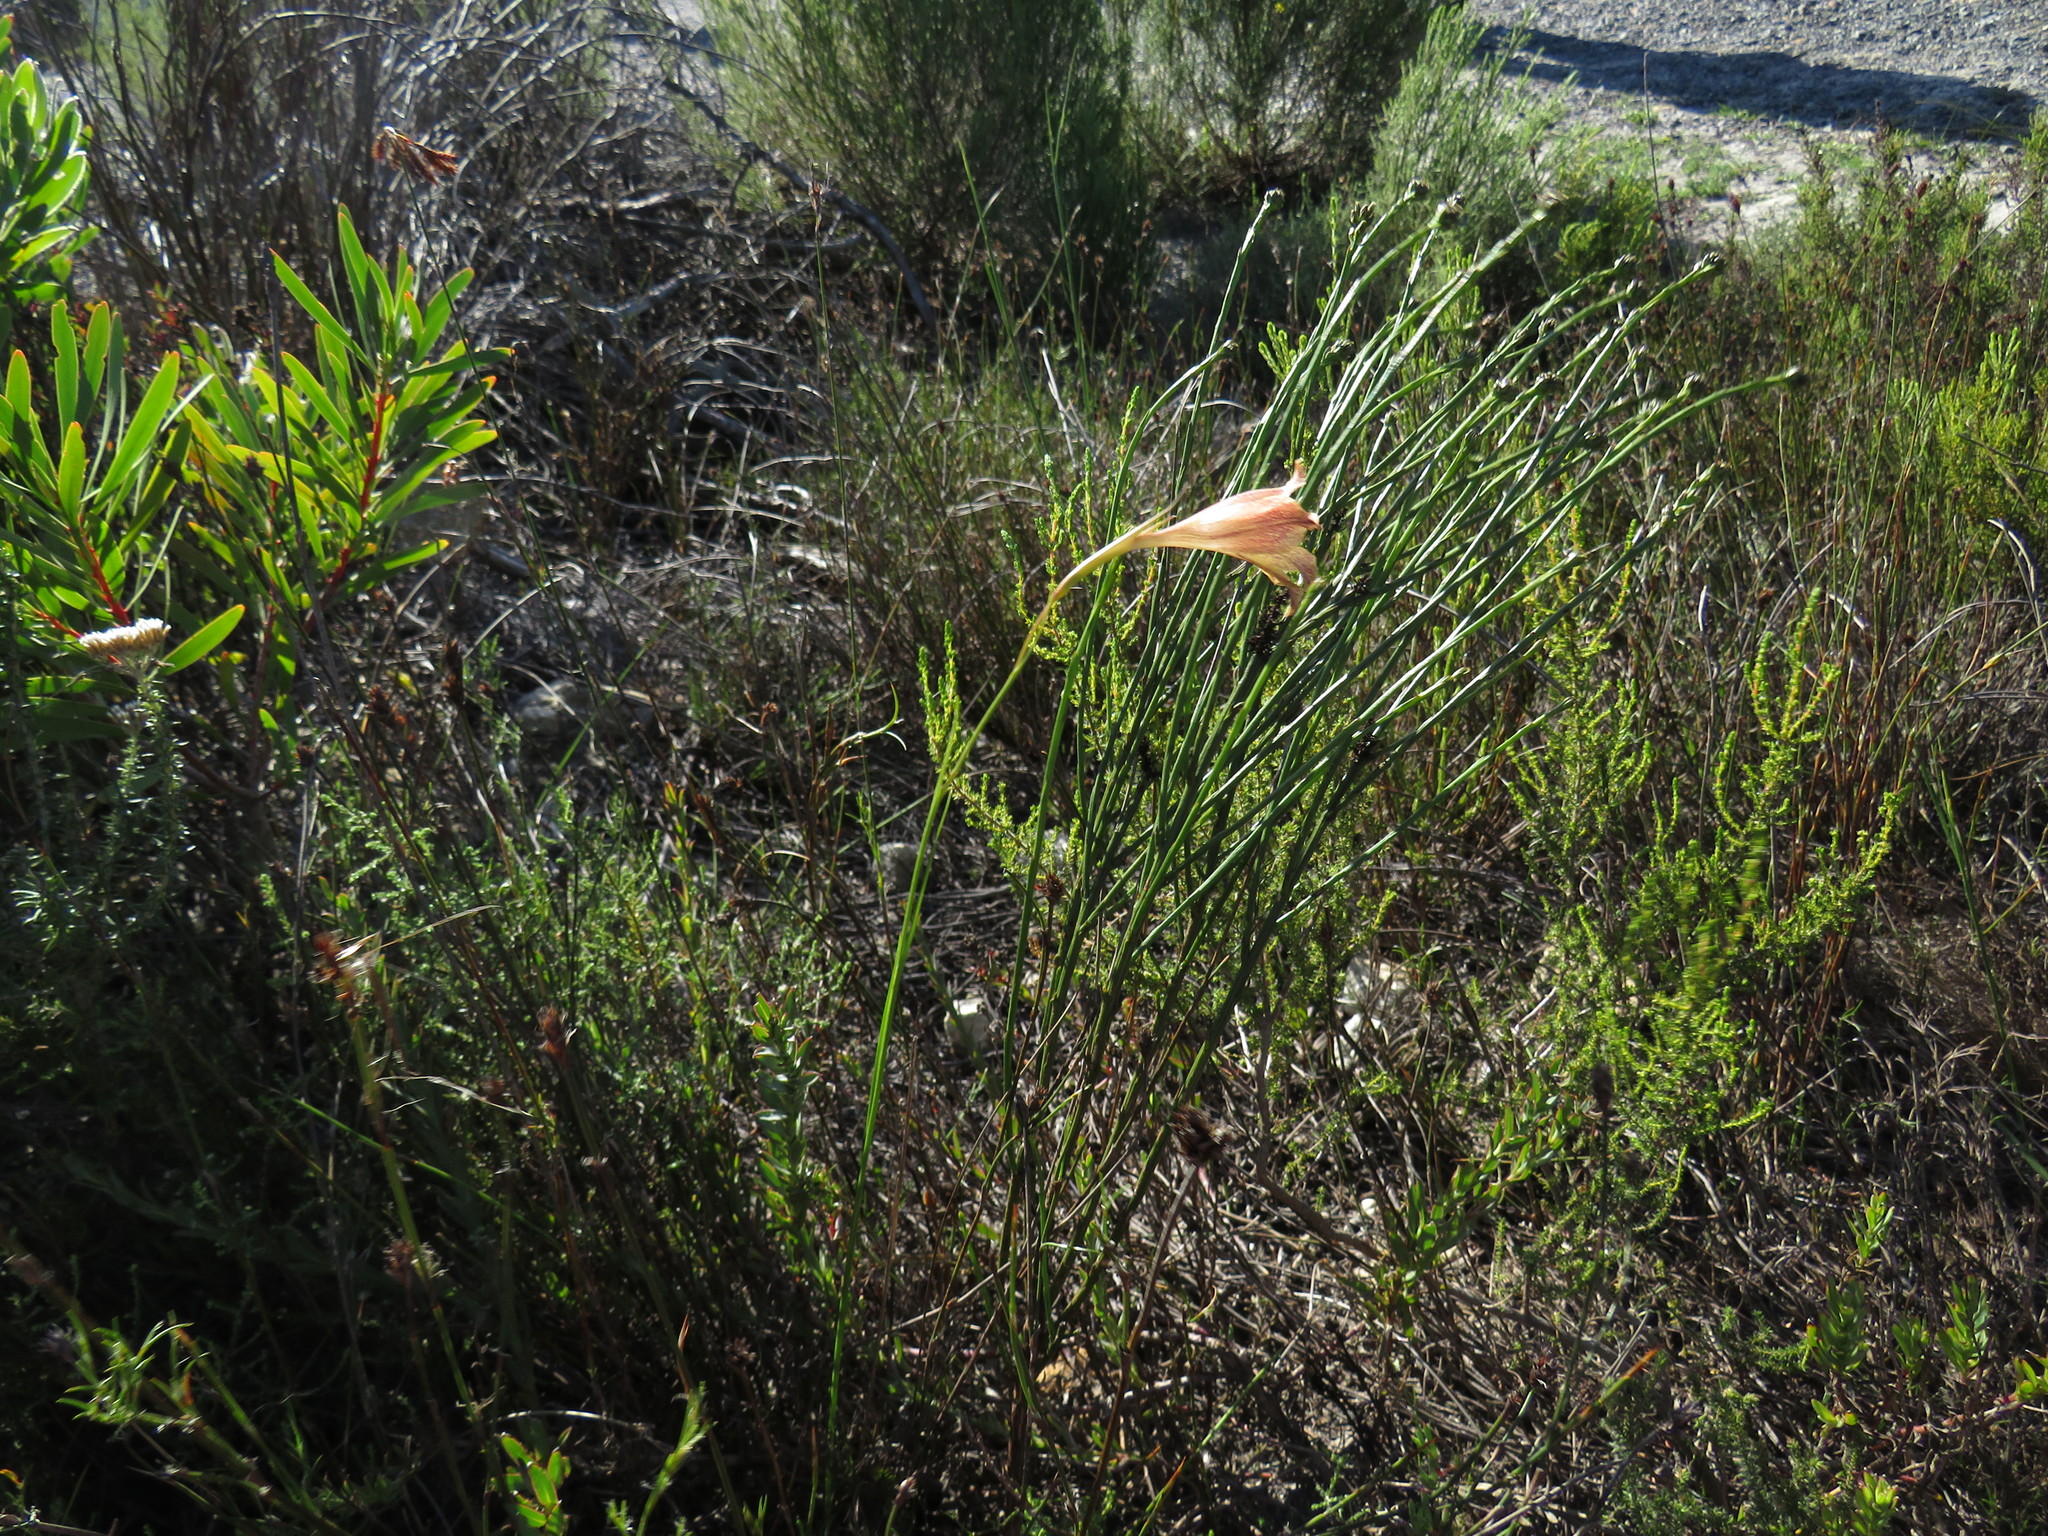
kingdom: Plantae
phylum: Tracheophyta
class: Liliopsida
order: Asparagales
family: Iridaceae
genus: Gladiolus
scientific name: Gladiolus maculatus
